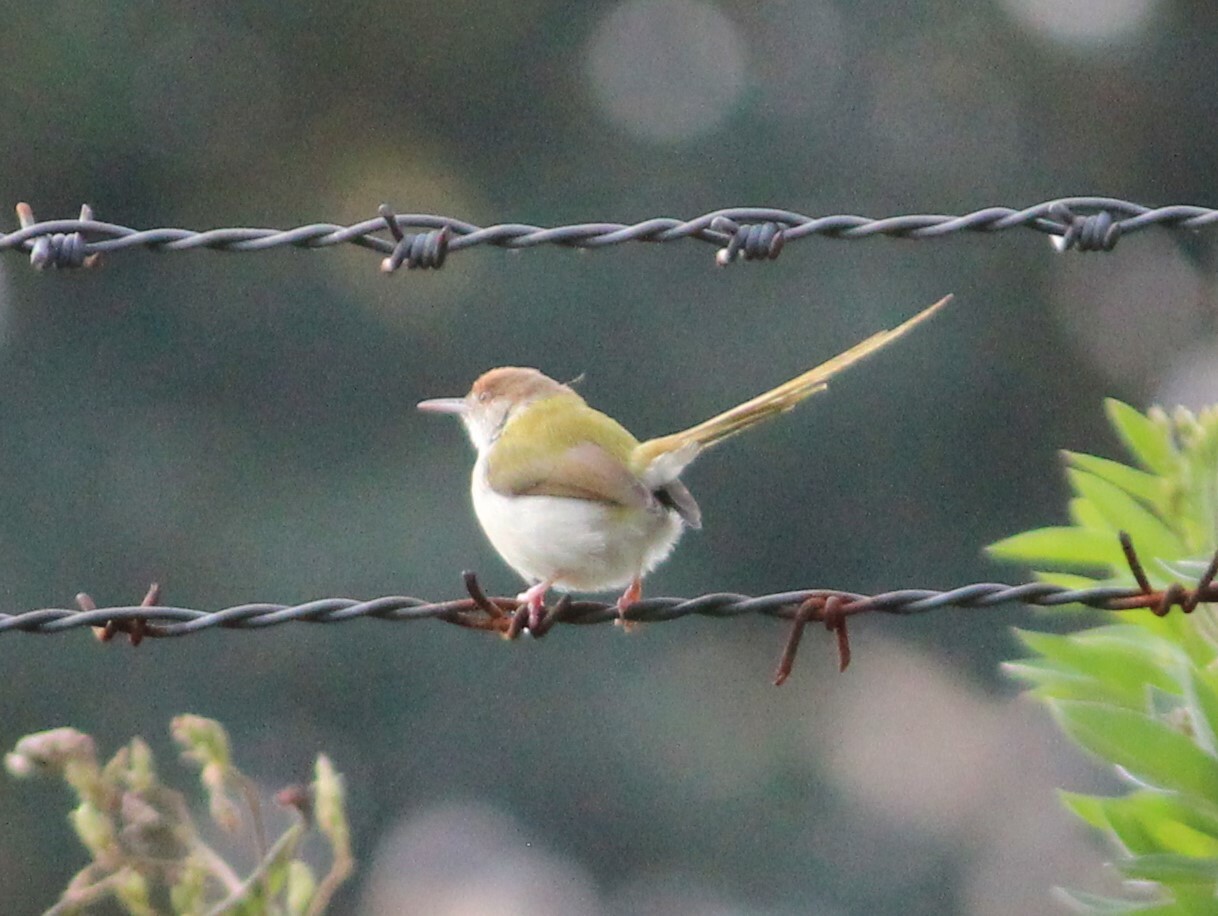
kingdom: Animalia
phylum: Chordata
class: Aves
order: Passeriformes
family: Cisticolidae
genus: Orthotomus
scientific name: Orthotomus sutorius
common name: Common tailorbird
